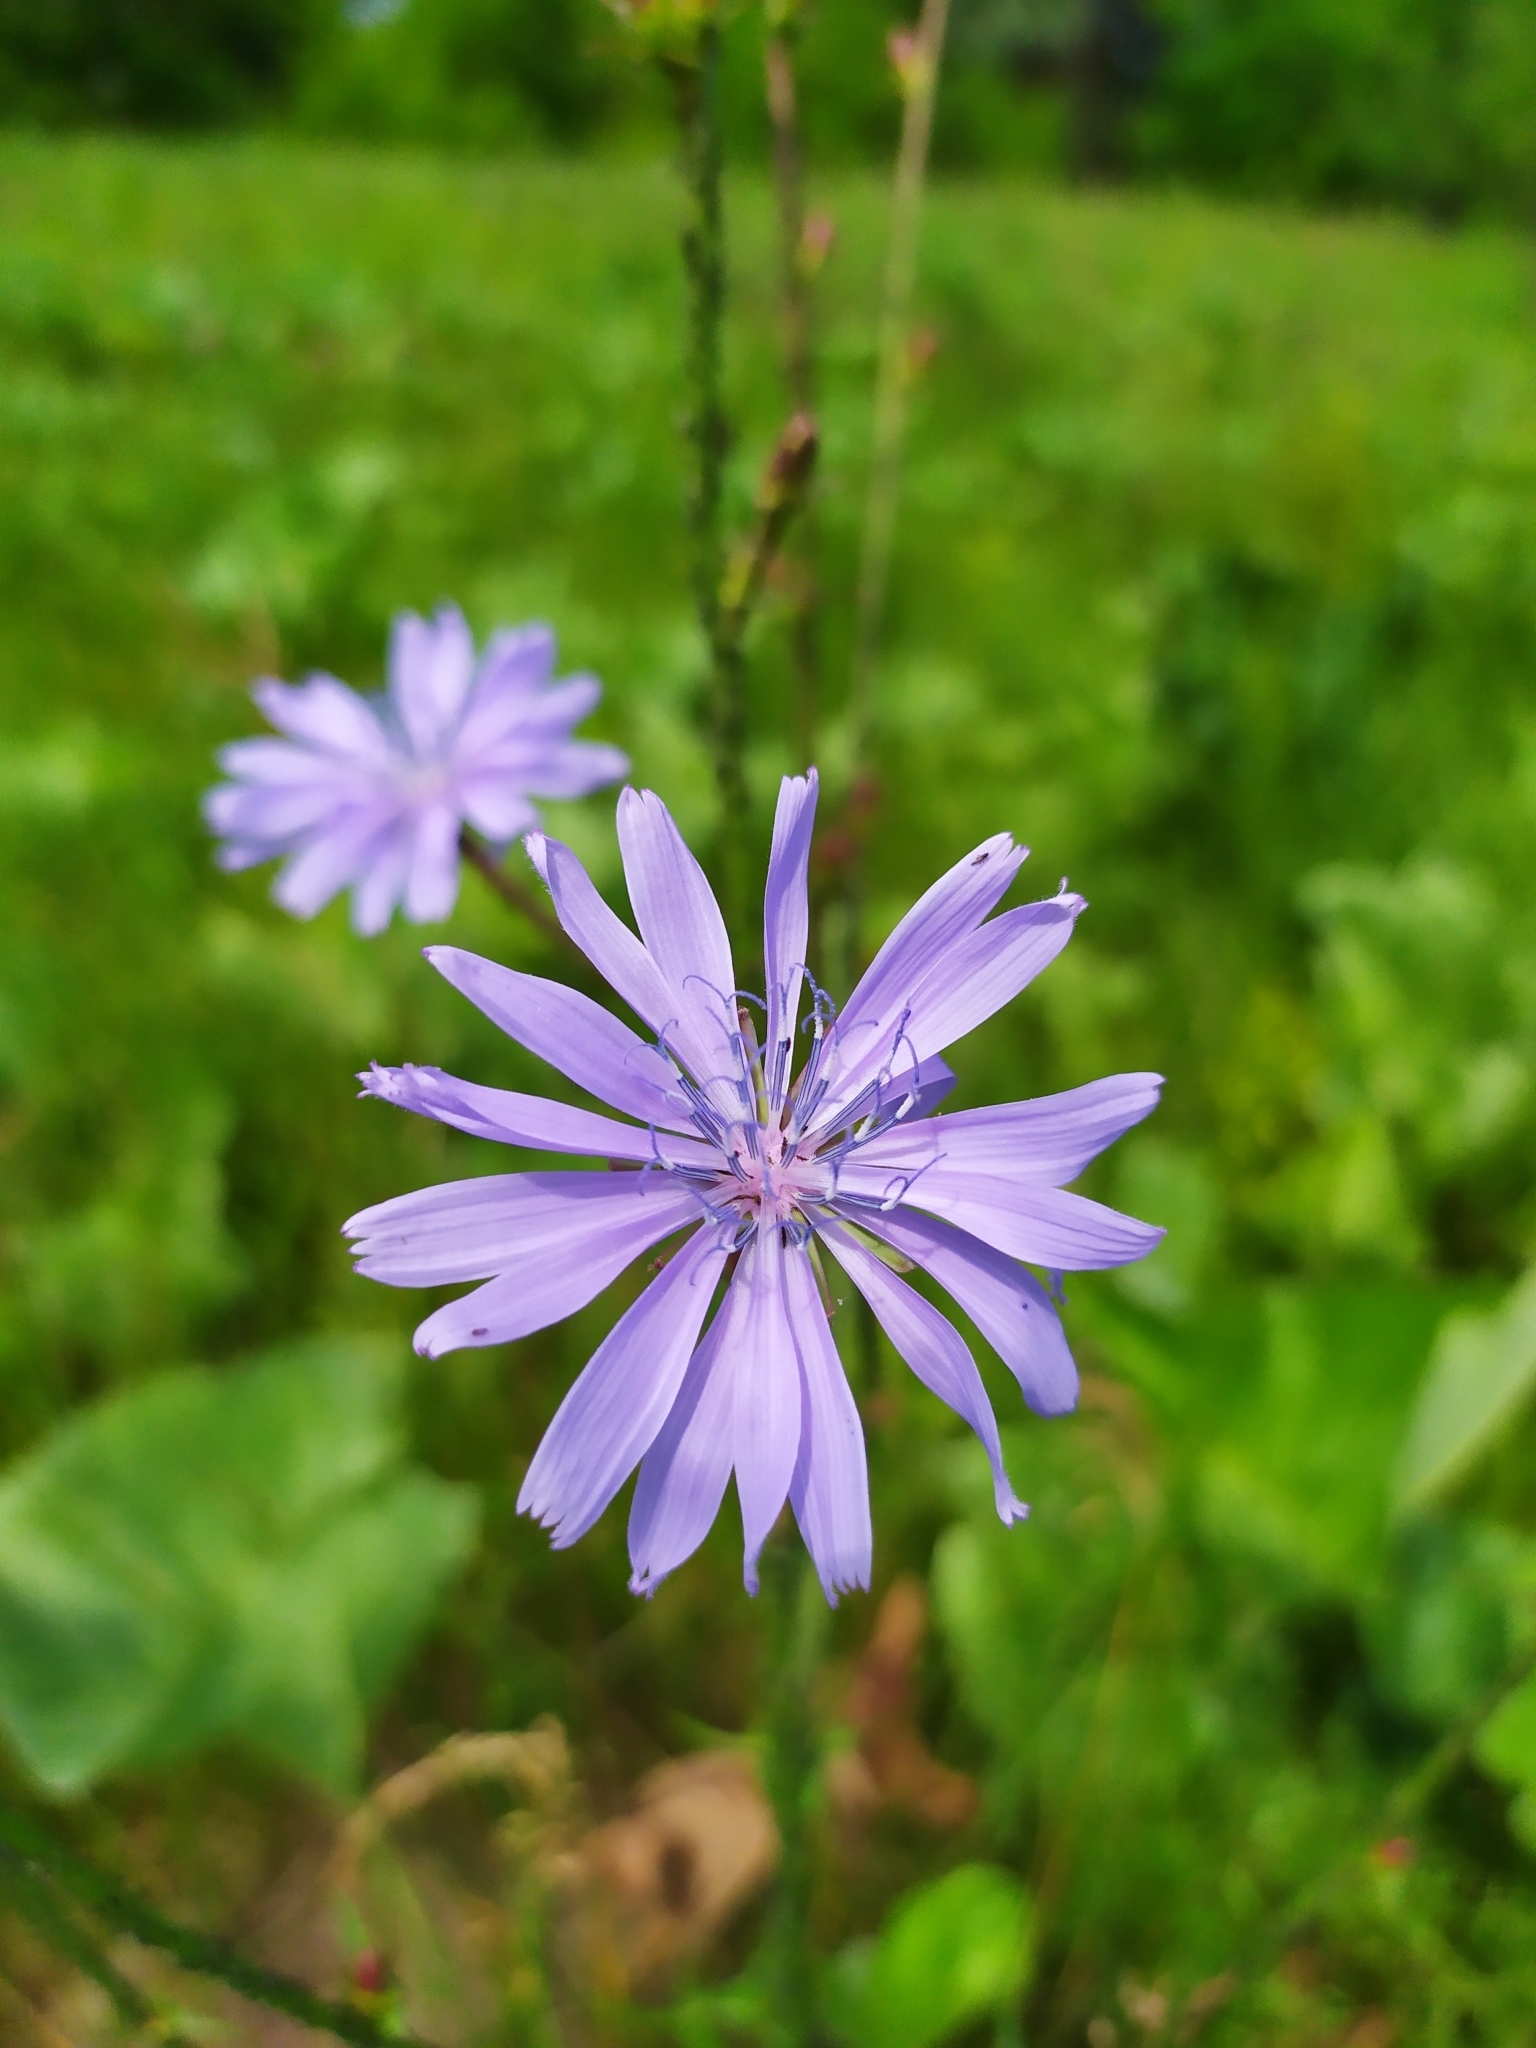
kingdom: Plantae
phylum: Tracheophyta
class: Magnoliopsida
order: Asterales
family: Asteraceae
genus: Cichorium
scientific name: Cichorium intybus
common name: Chicory
